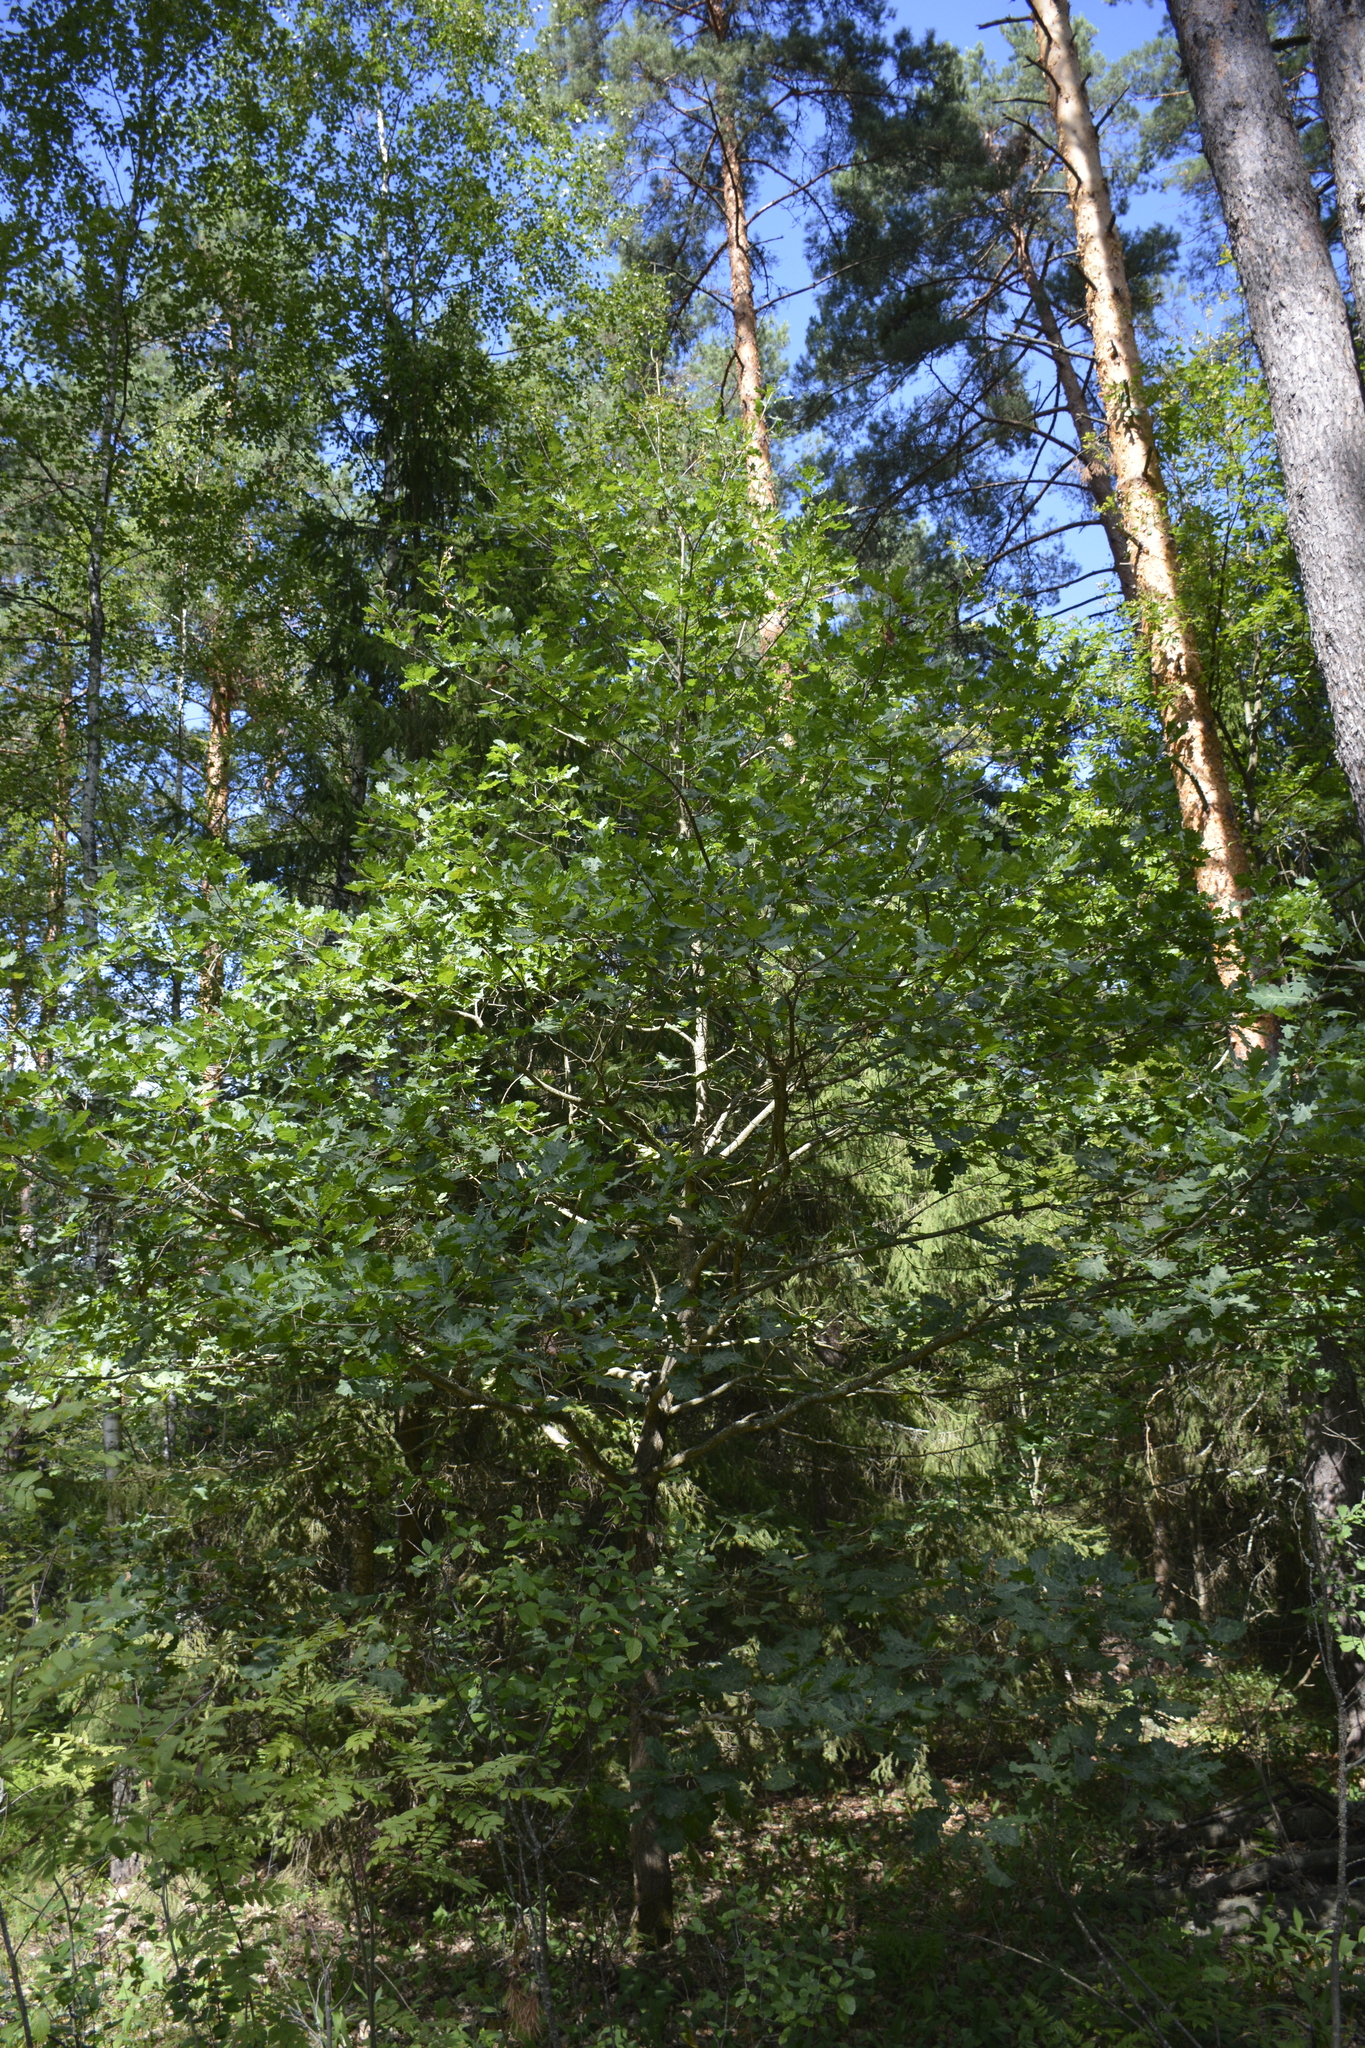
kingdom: Plantae
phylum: Tracheophyta
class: Magnoliopsida
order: Fagales
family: Fagaceae
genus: Quercus
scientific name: Quercus robur
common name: Pedunculate oak
